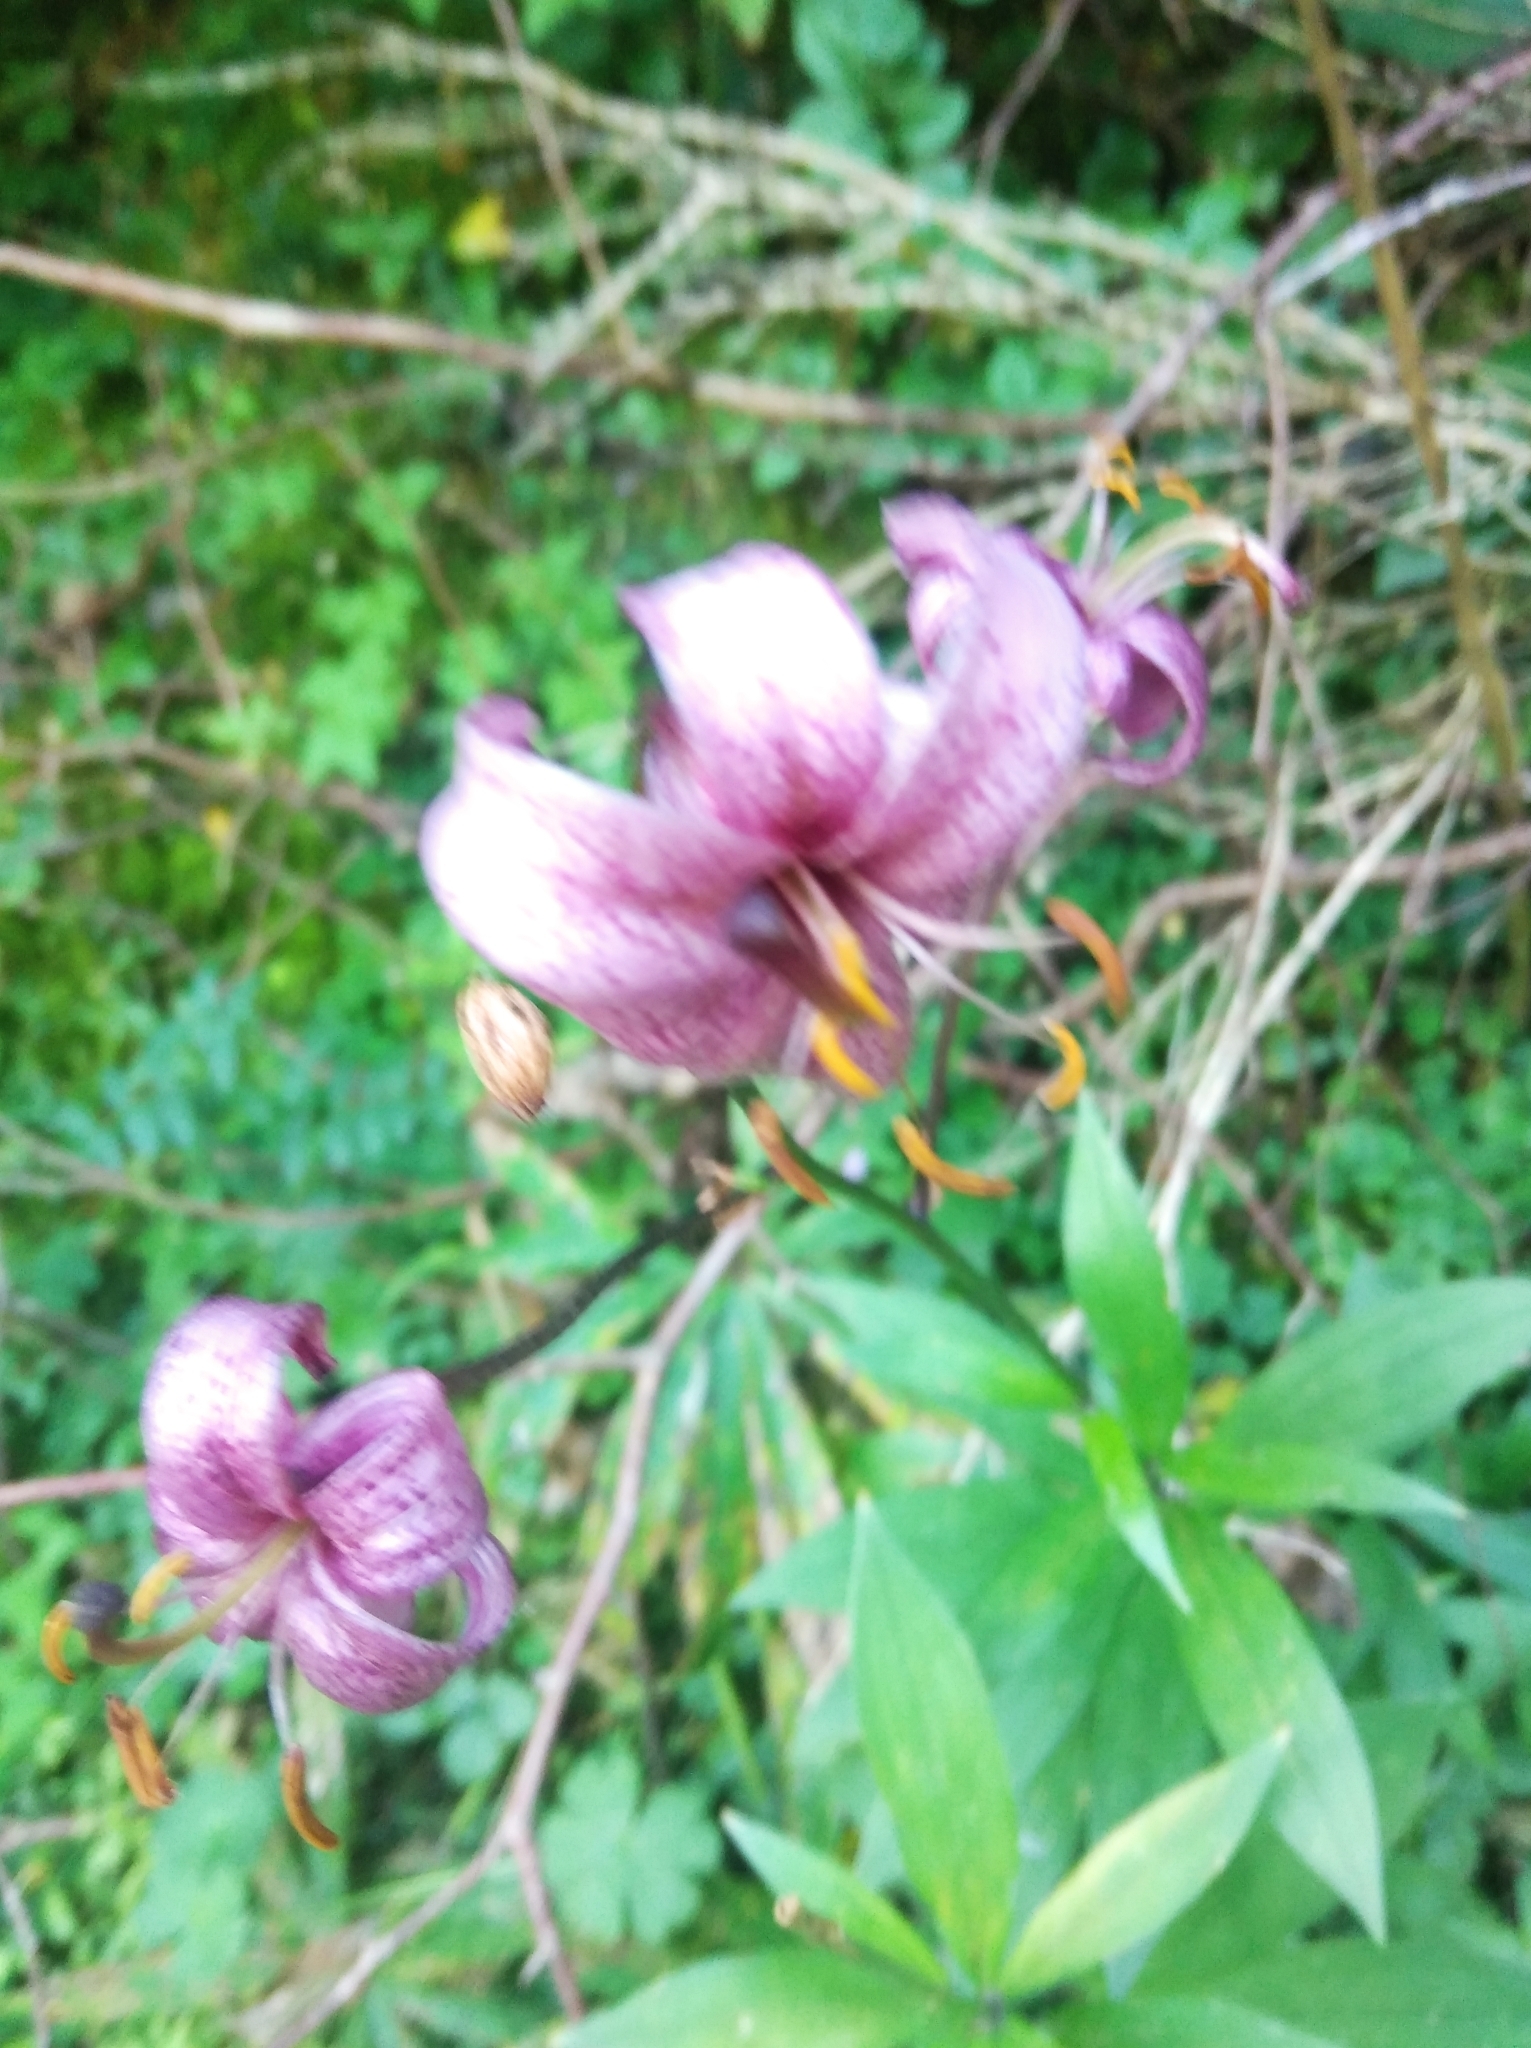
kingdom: Plantae
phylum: Tracheophyta
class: Liliopsida
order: Liliales
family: Liliaceae
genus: Lilium
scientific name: Lilium martagon
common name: Martagon lily
